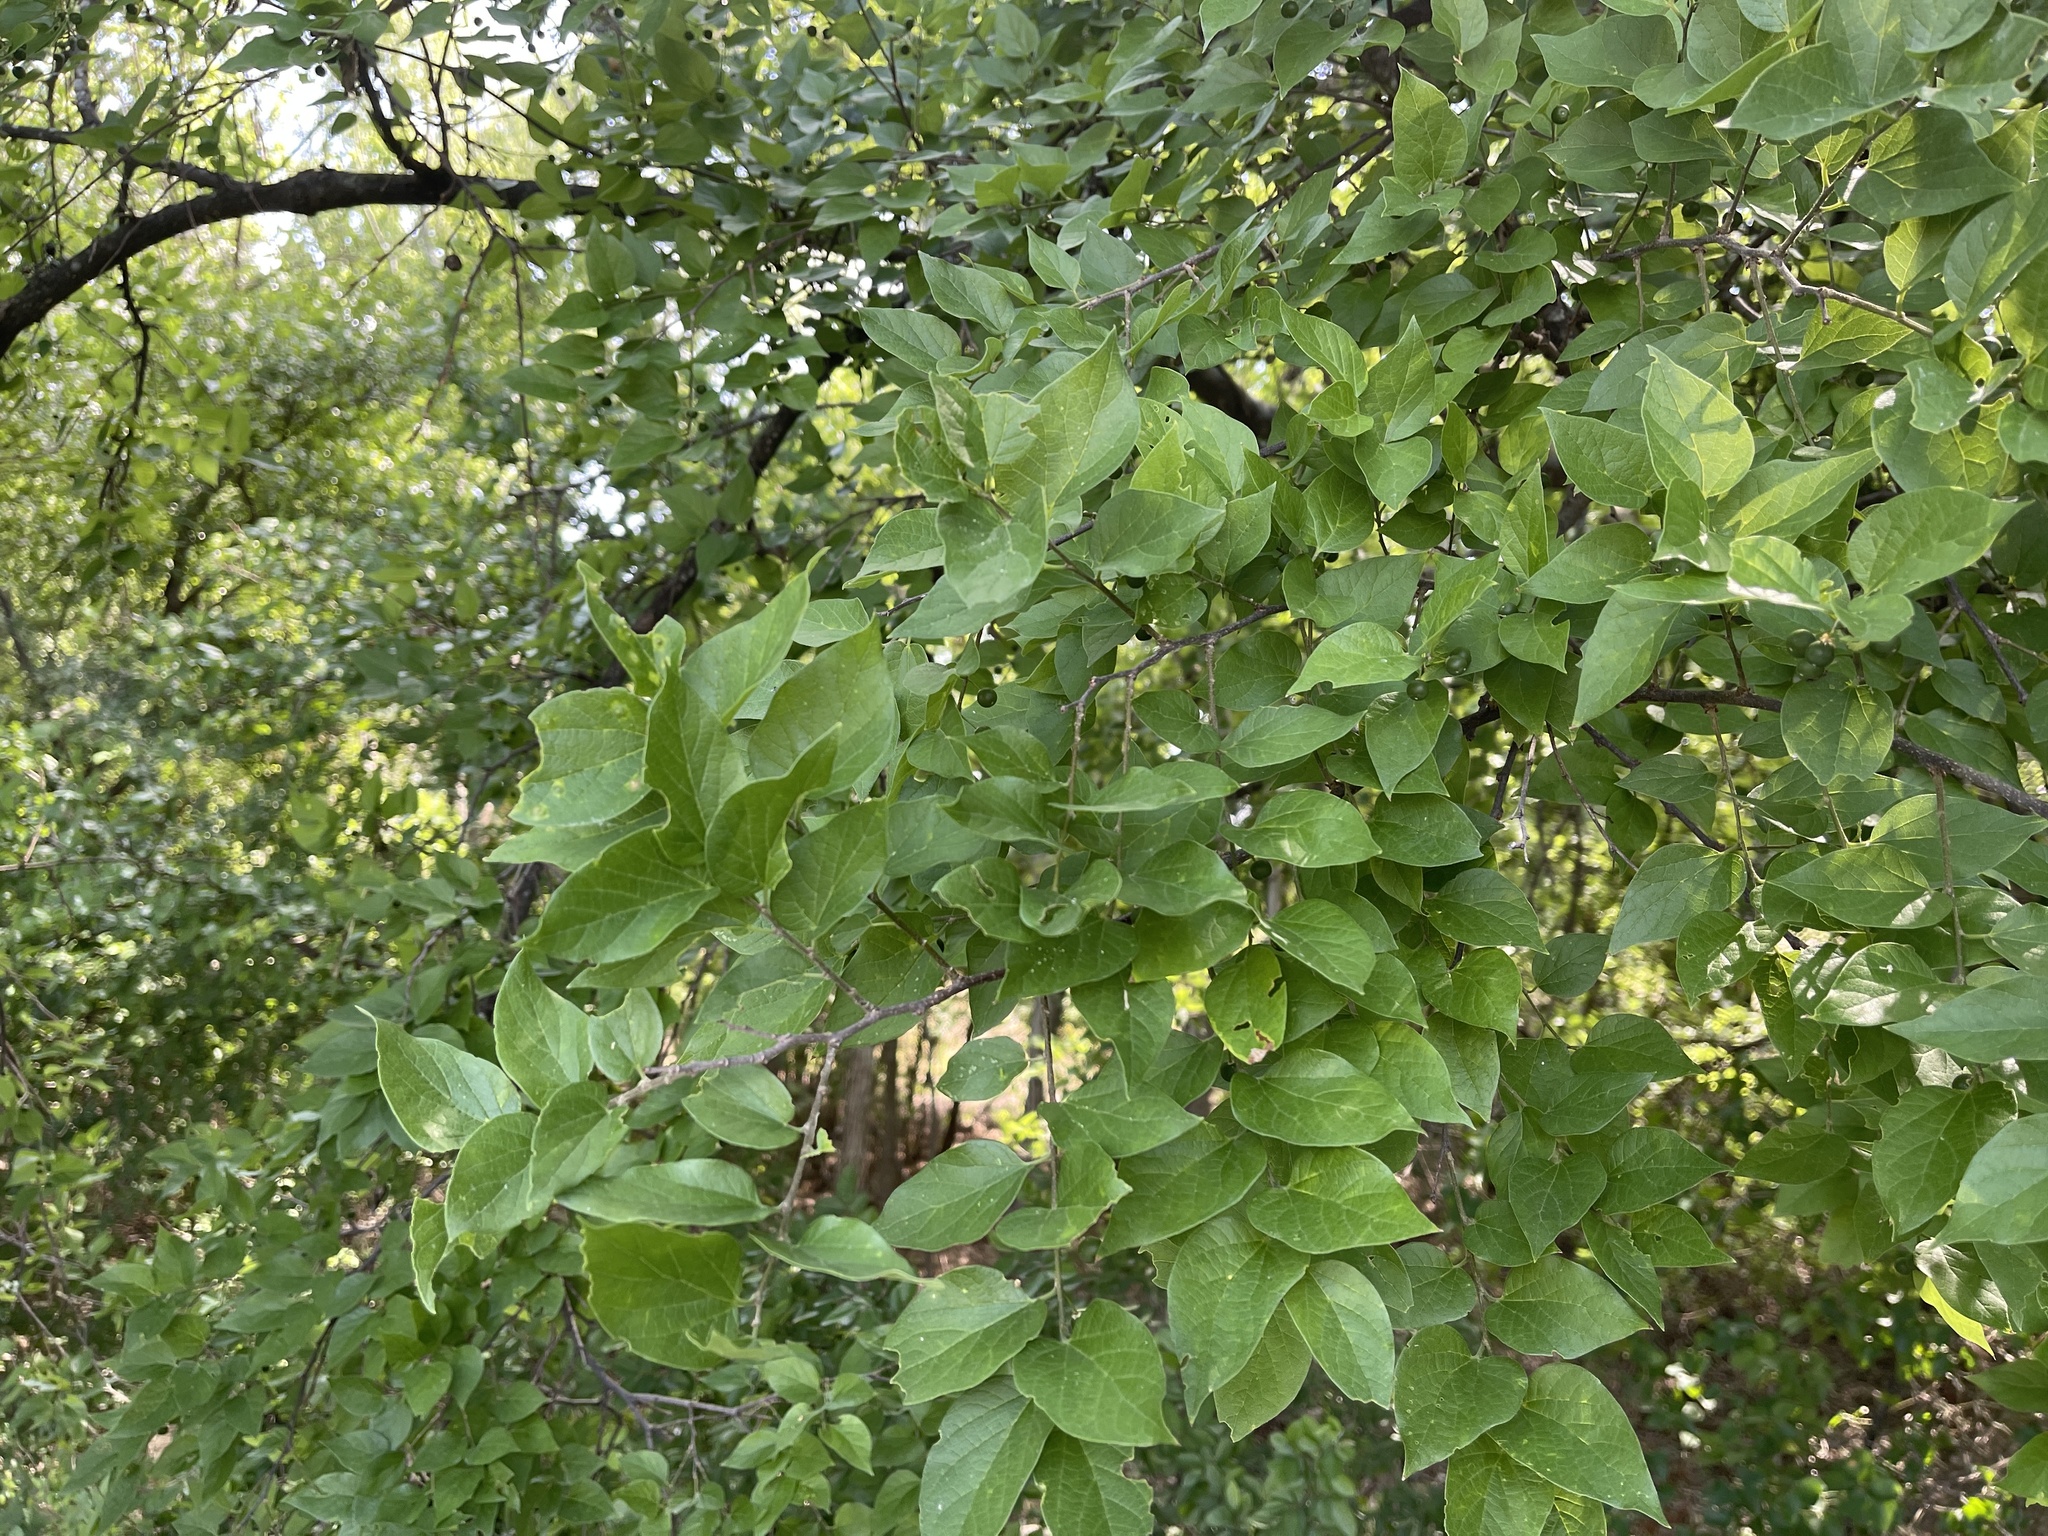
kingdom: Plantae
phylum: Tracheophyta
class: Magnoliopsida
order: Rosales
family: Cannabaceae
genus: Celtis
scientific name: Celtis reticulata
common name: Netleaf hackberry
